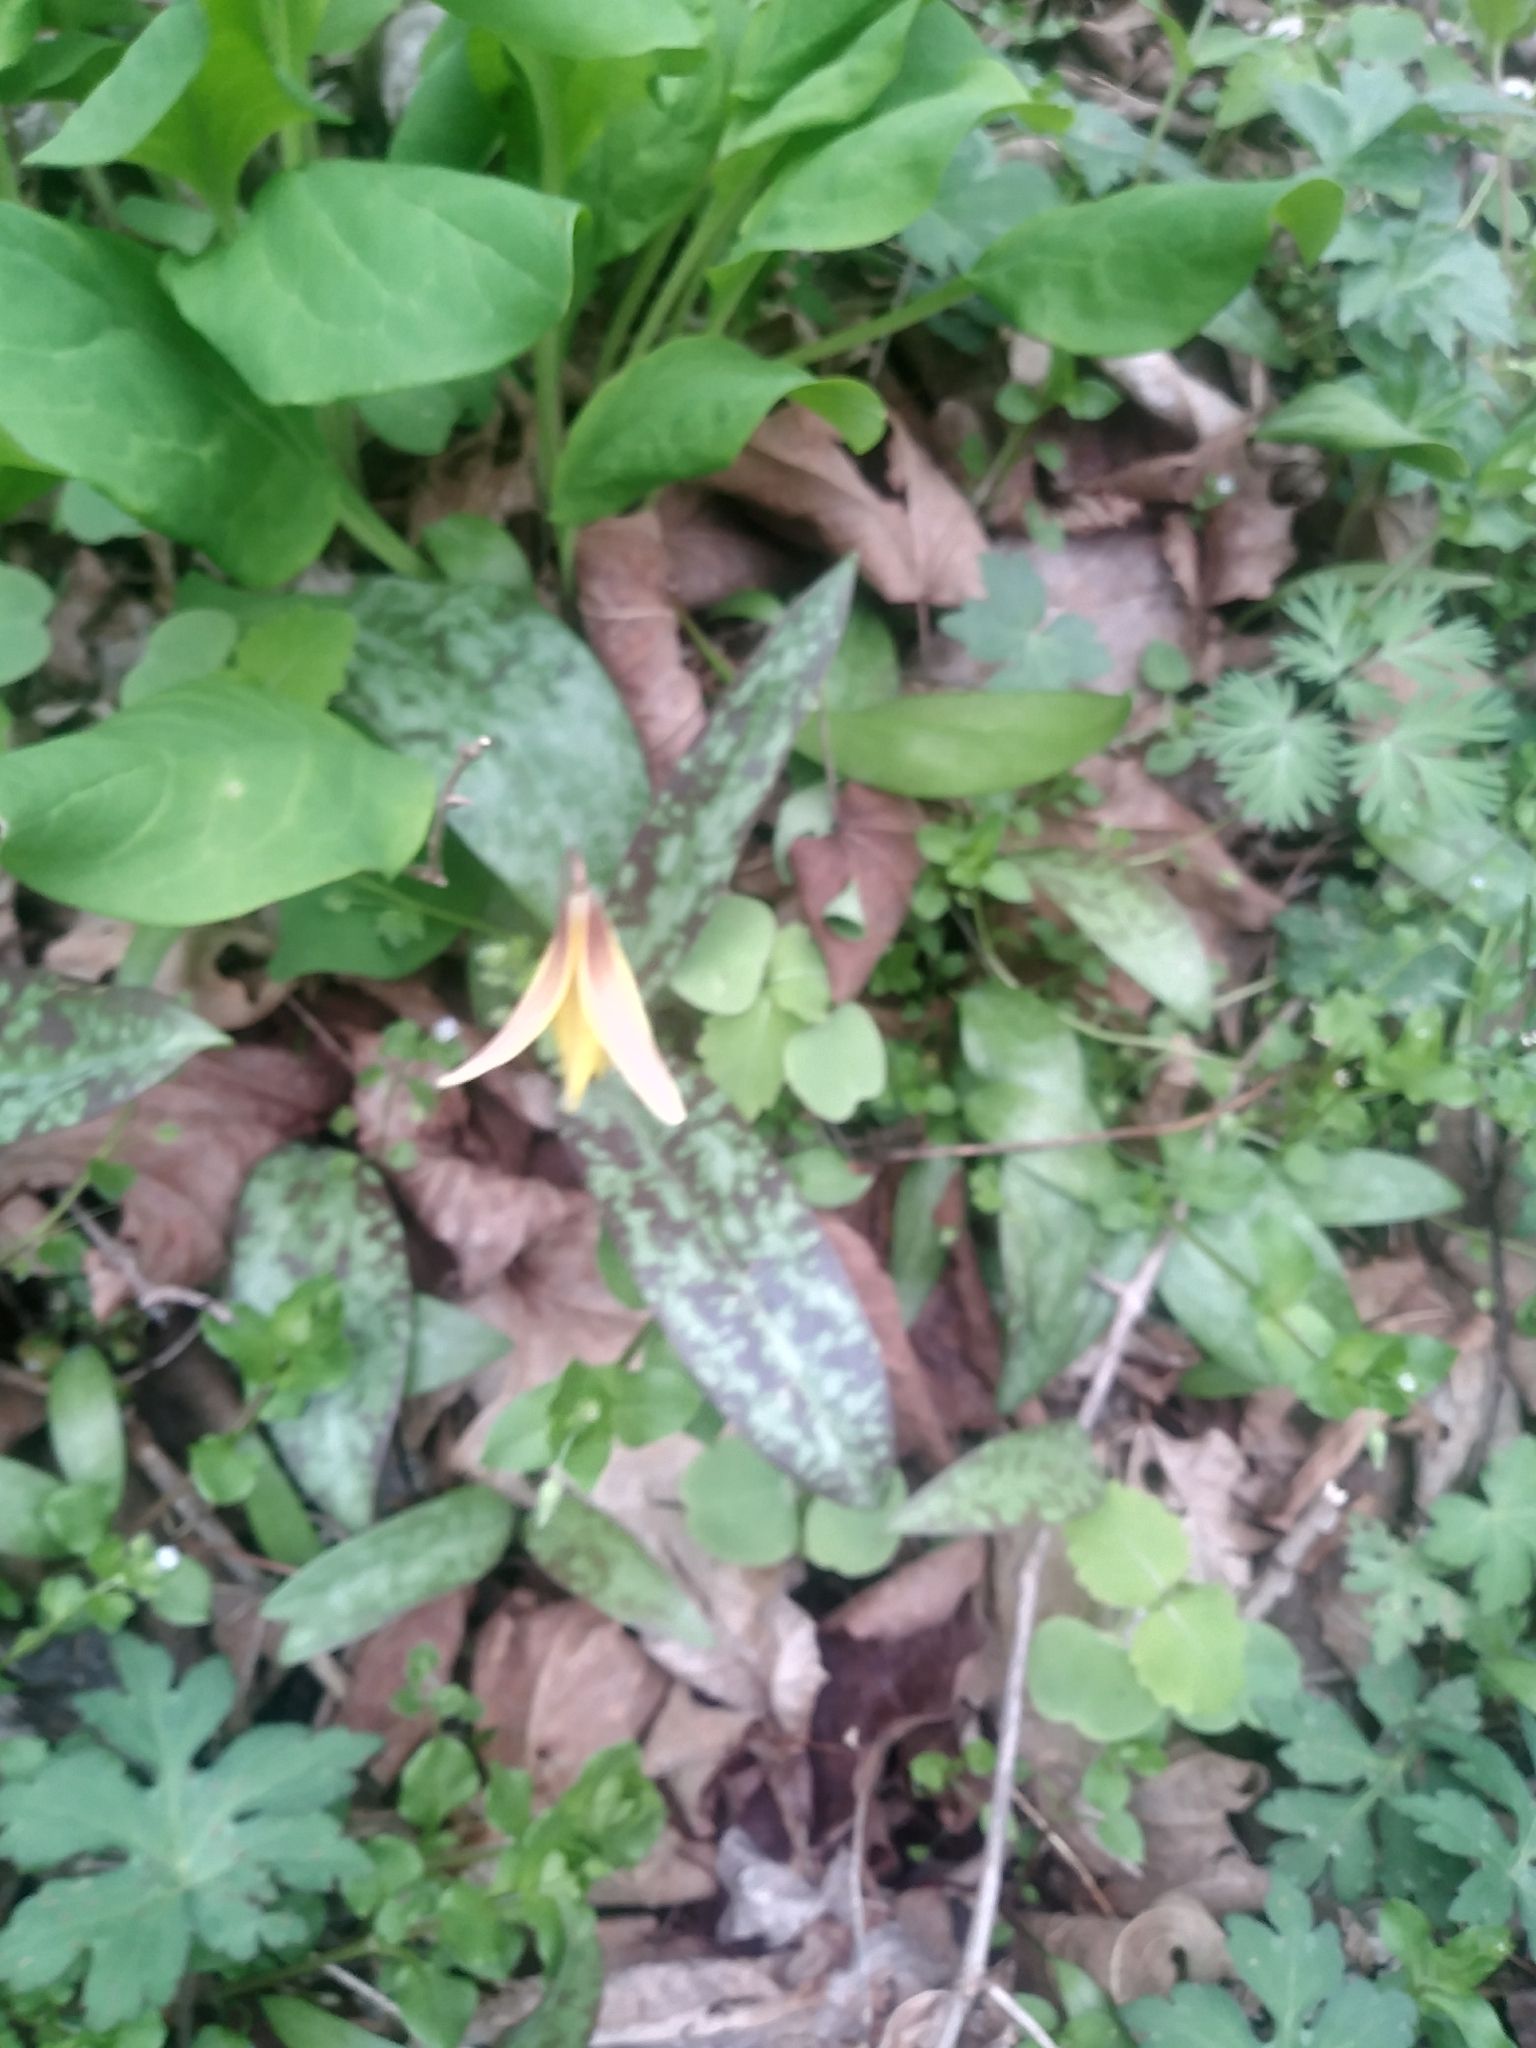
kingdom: Plantae
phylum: Tracheophyta
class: Liliopsida
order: Liliales
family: Liliaceae
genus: Erythronium
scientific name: Erythronium americanum
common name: Yellow adder's-tongue
